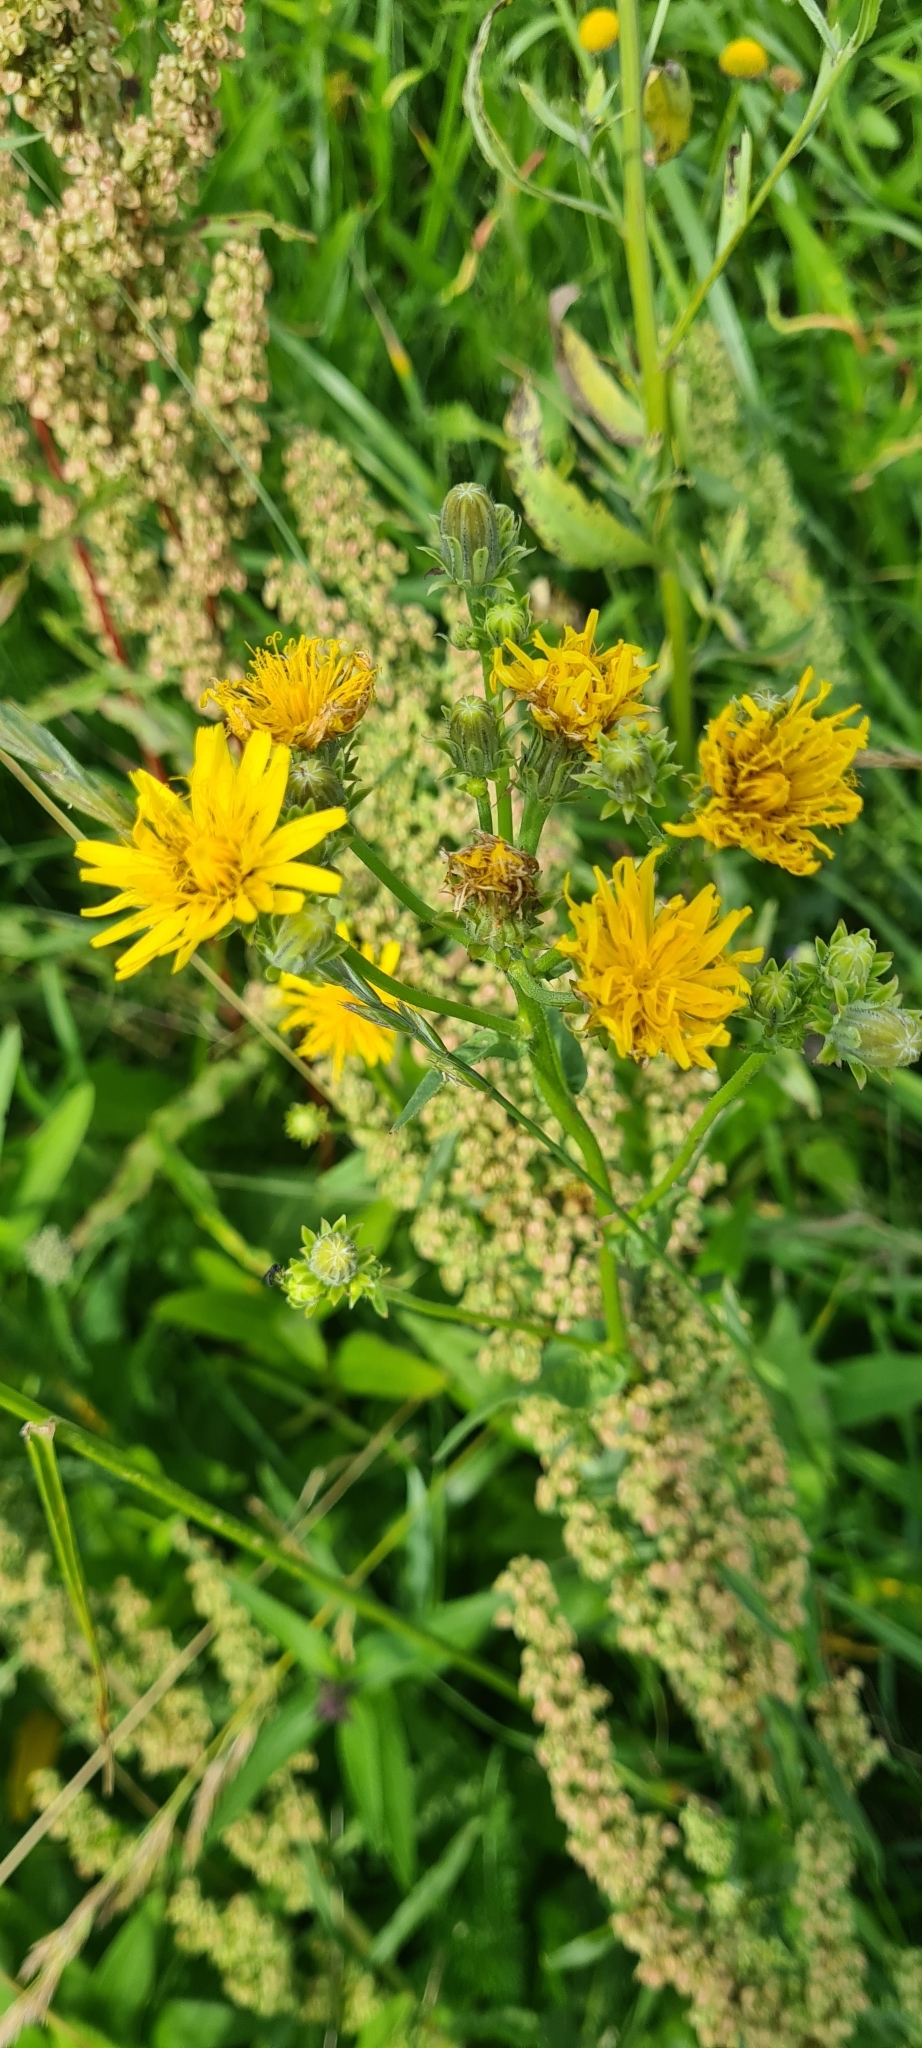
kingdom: Plantae
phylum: Tracheophyta
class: Magnoliopsida
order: Asterales
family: Asteraceae
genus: Picris
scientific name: Picris hieracioides
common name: Hawkweed oxtongue
